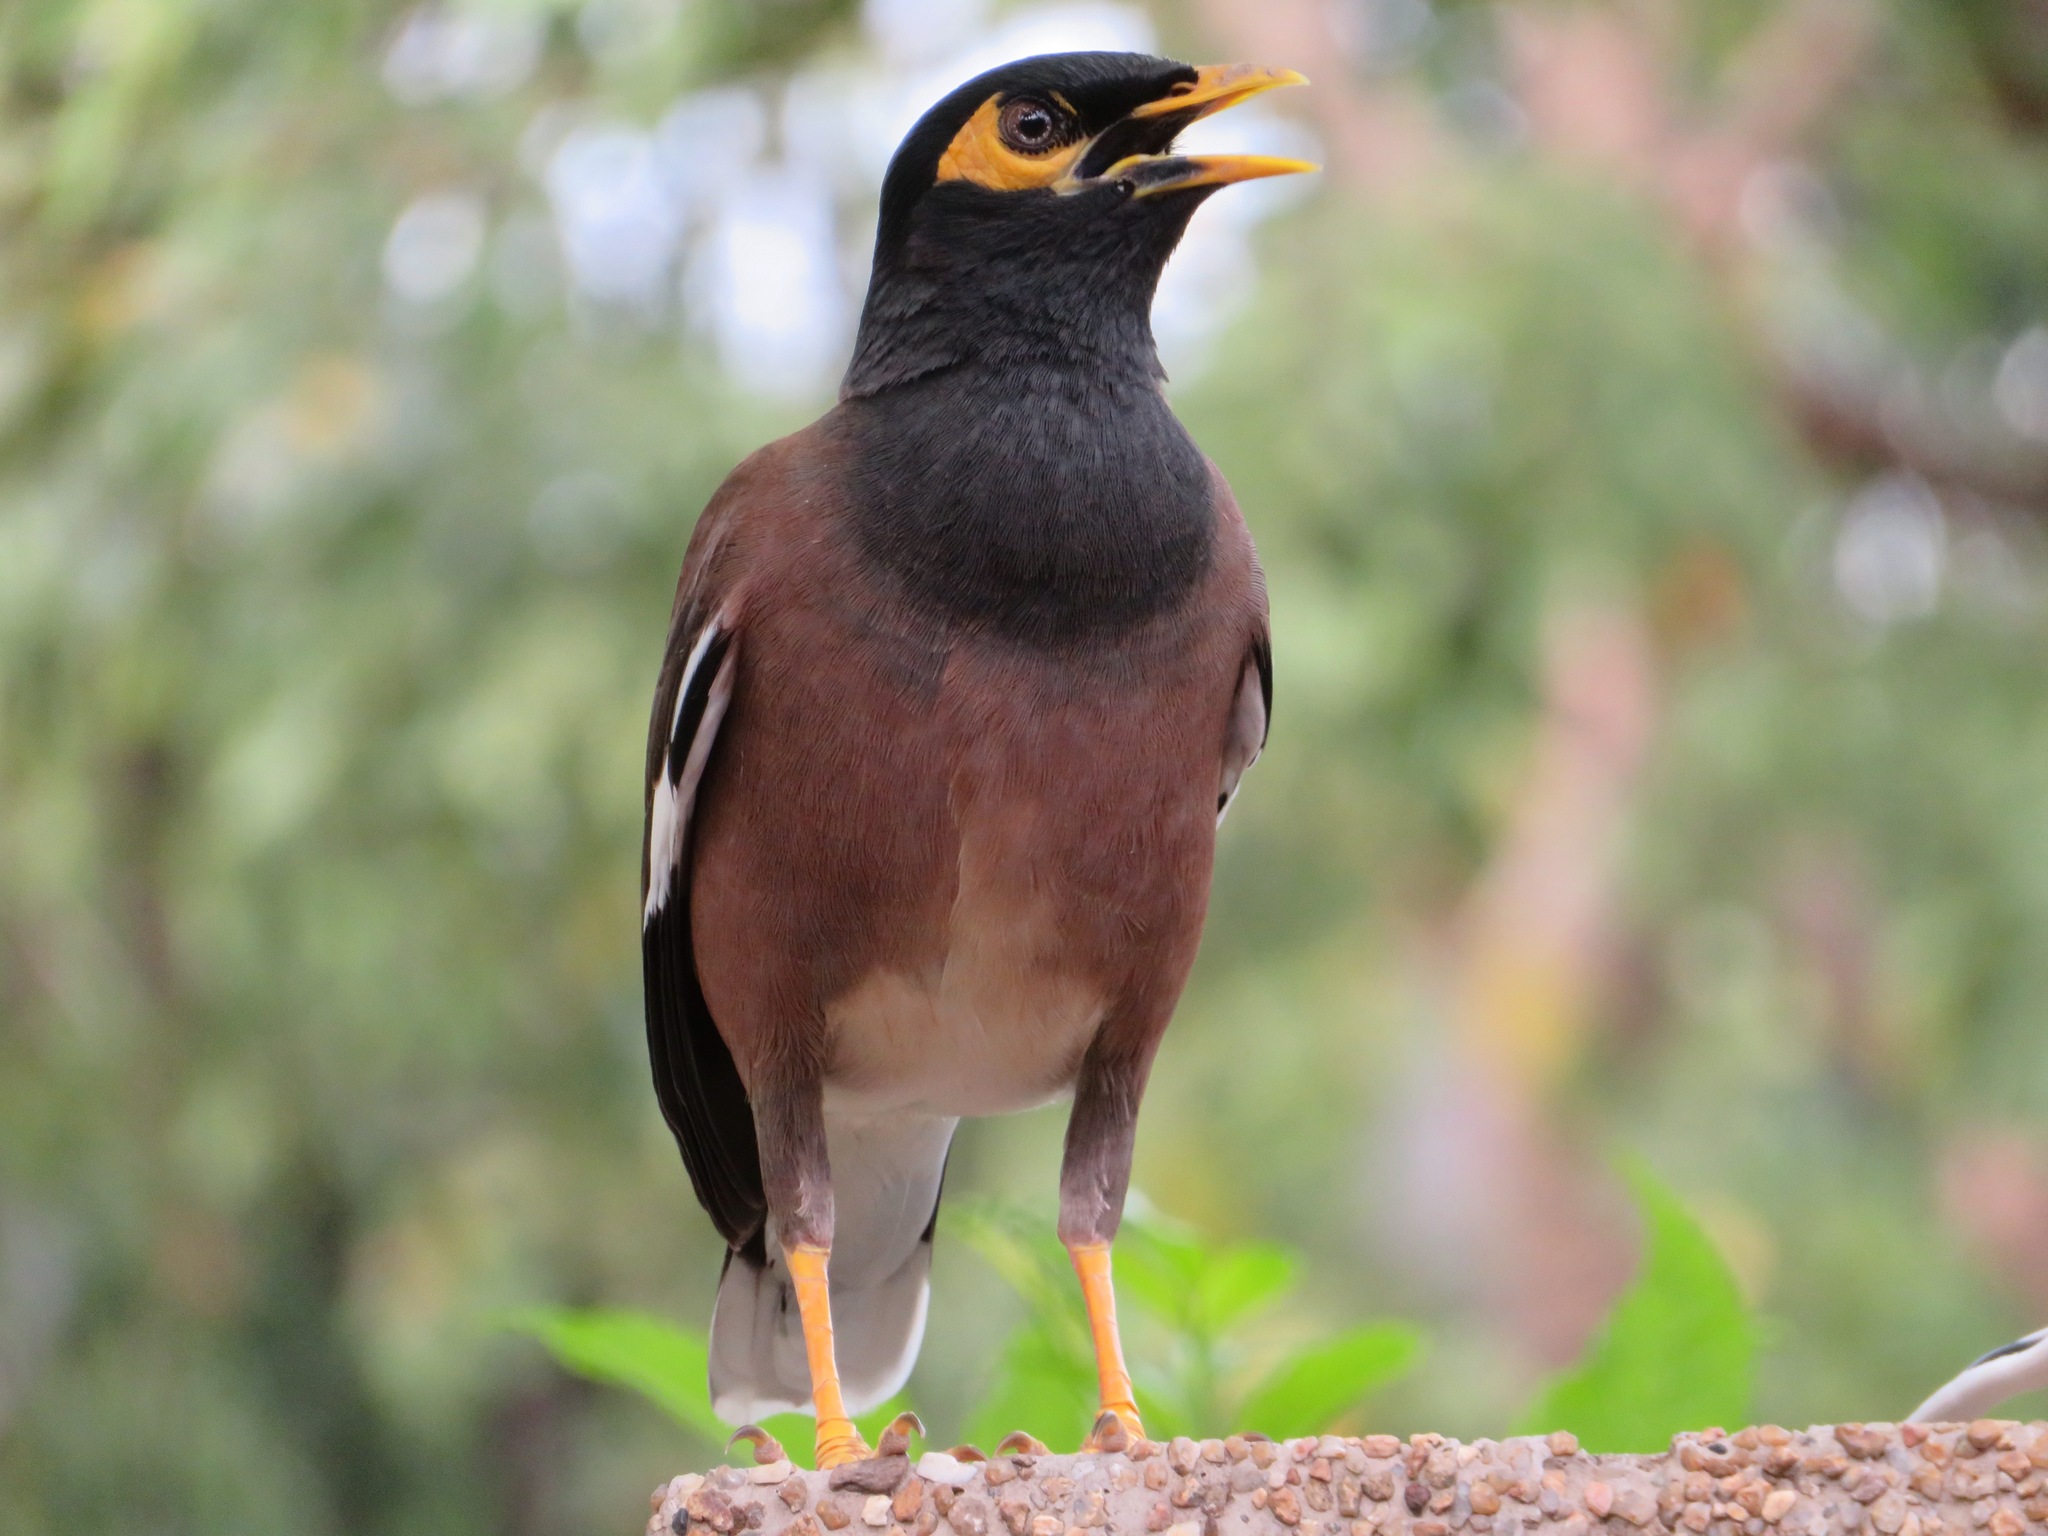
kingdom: Animalia
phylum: Chordata
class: Aves
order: Passeriformes
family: Sturnidae
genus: Acridotheres
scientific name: Acridotheres tristis
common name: Common myna
